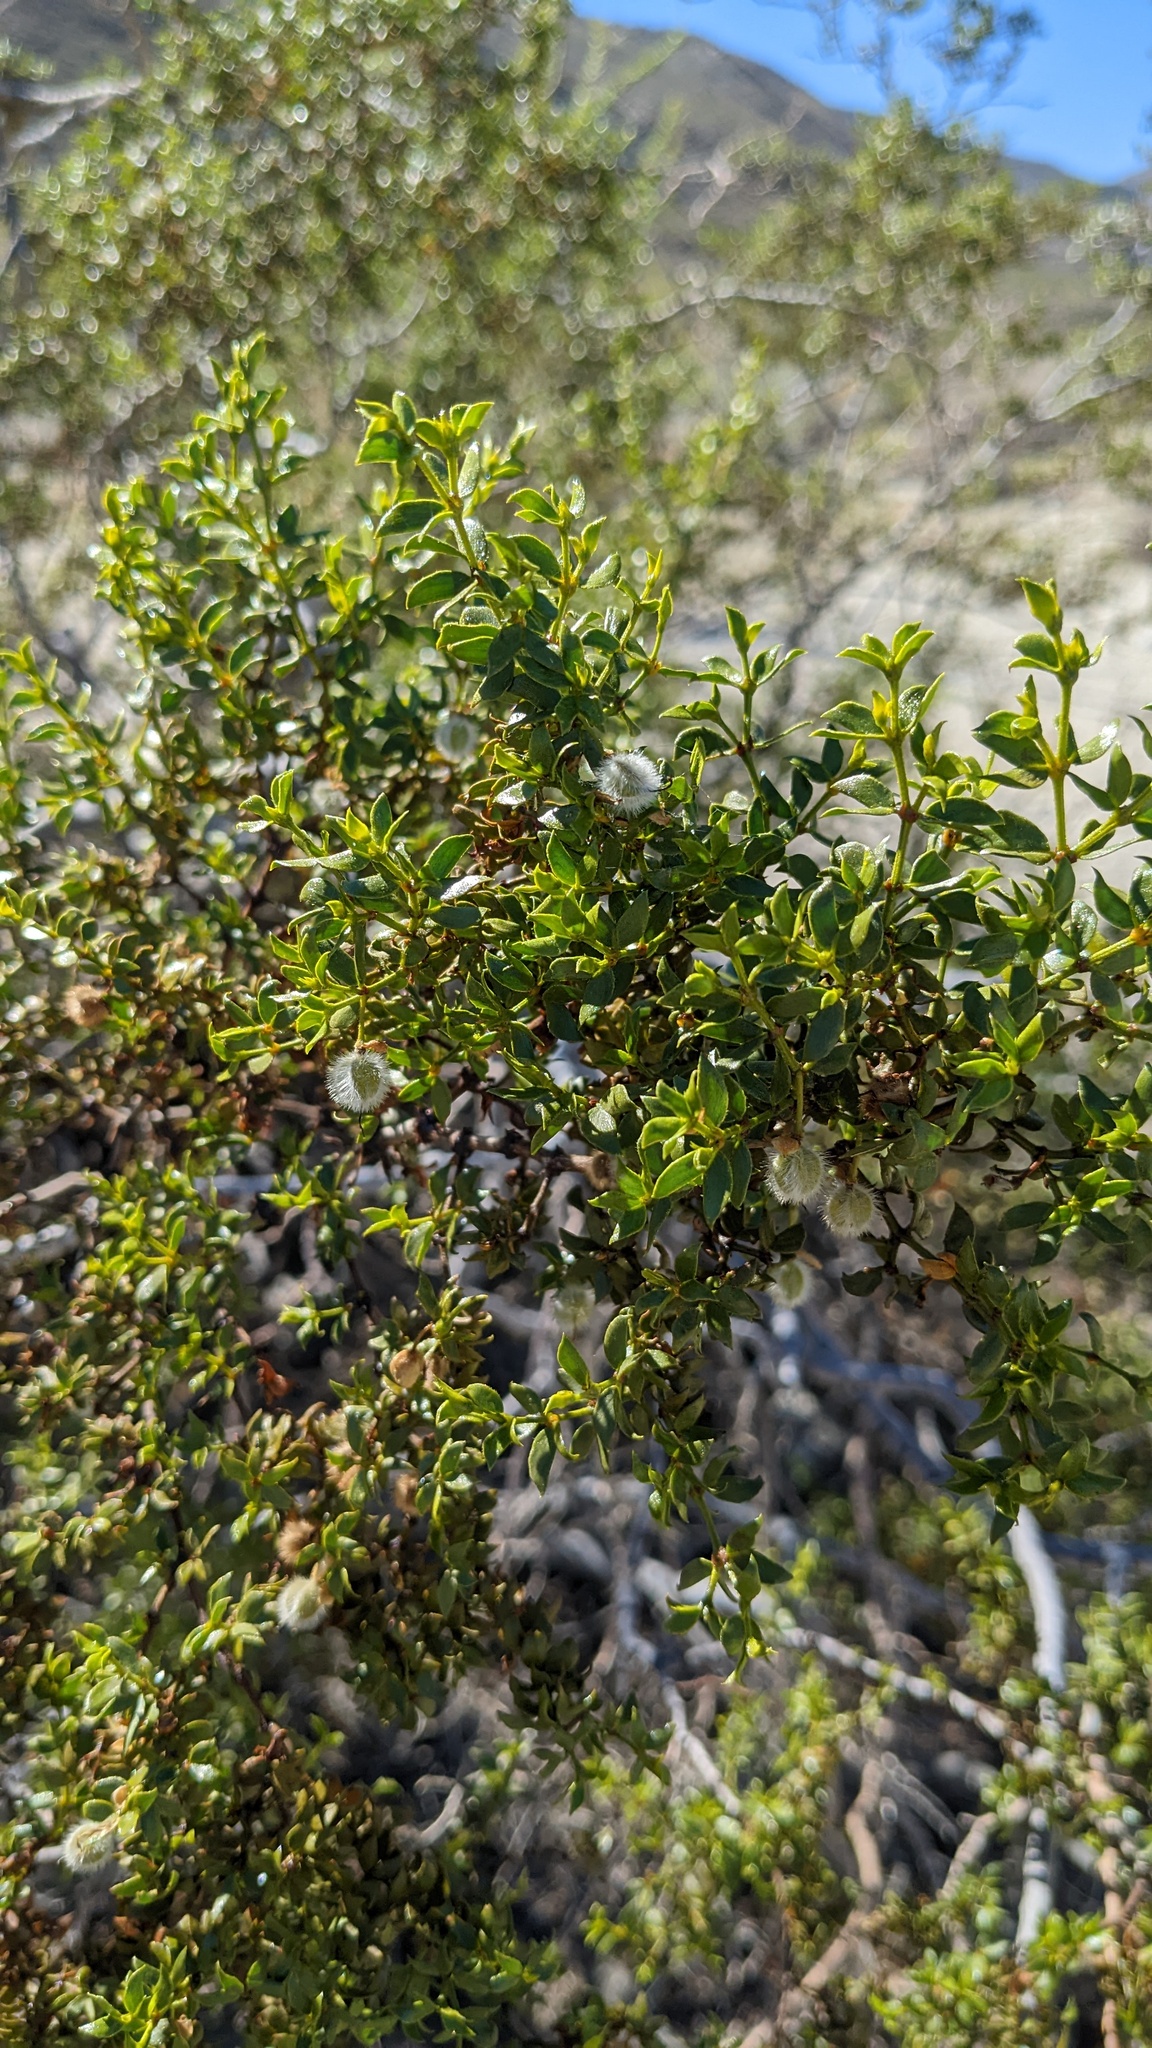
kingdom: Plantae
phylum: Tracheophyta
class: Magnoliopsida
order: Zygophyllales
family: Zygophyllaceae
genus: Larrea
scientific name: Larrea tridentata
